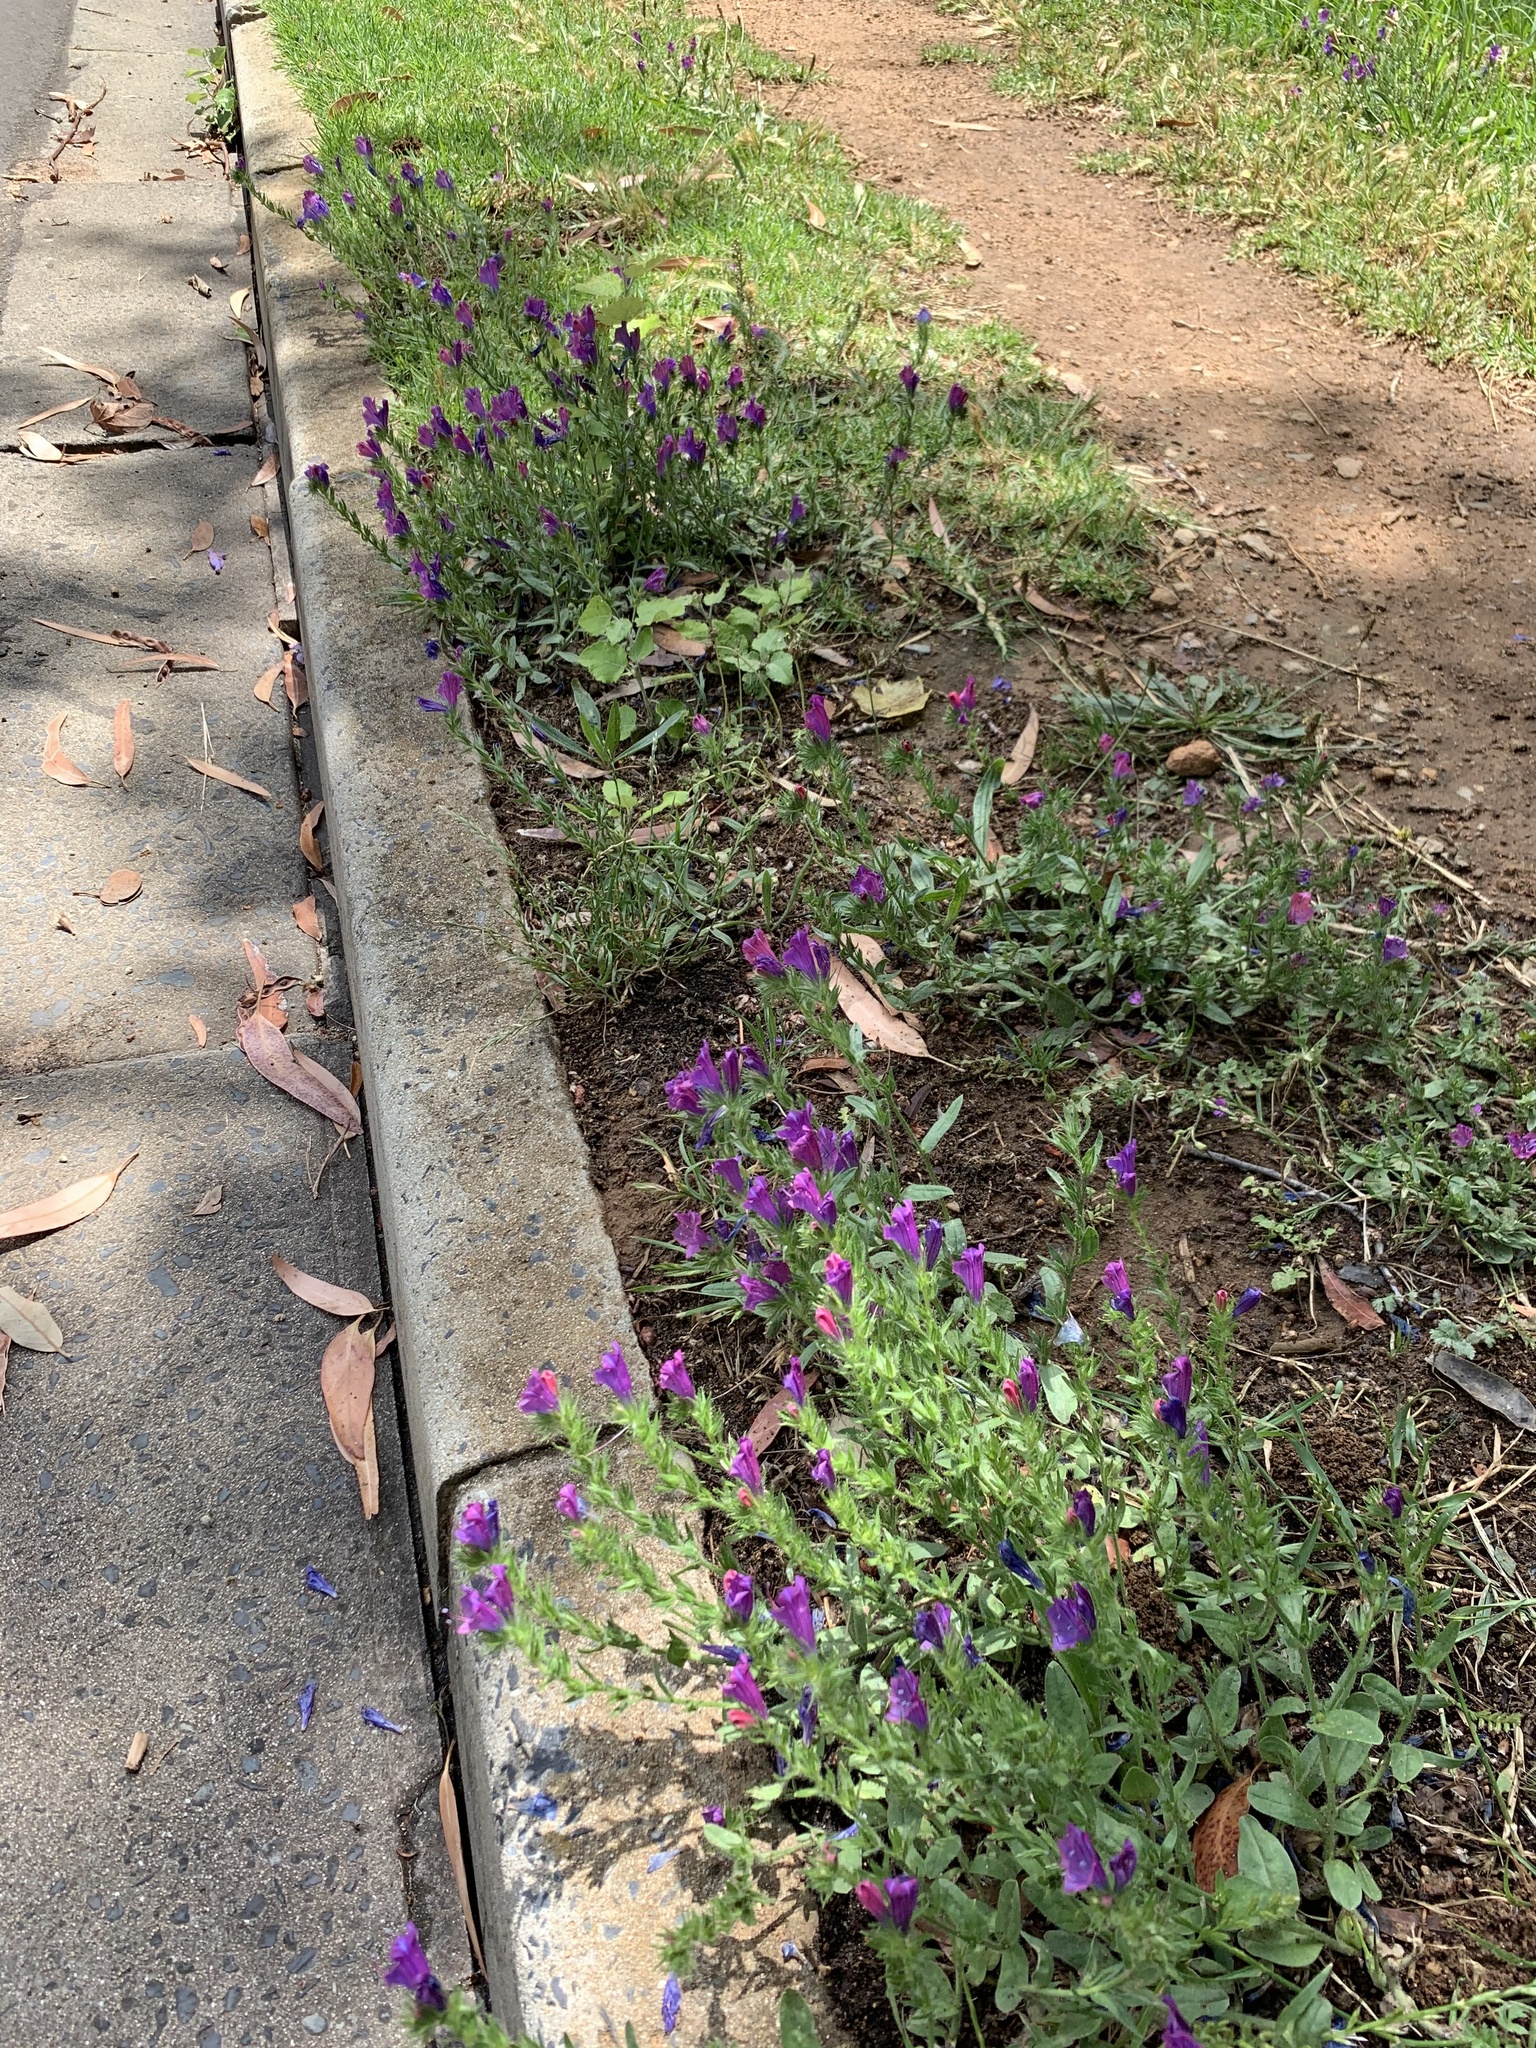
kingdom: Plantae
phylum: Tracheophyta
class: Magnoliopsida
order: Boraginales
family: Boraginaceae
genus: Echium
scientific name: Echium plantagineum
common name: Purple viper's-bugloss
